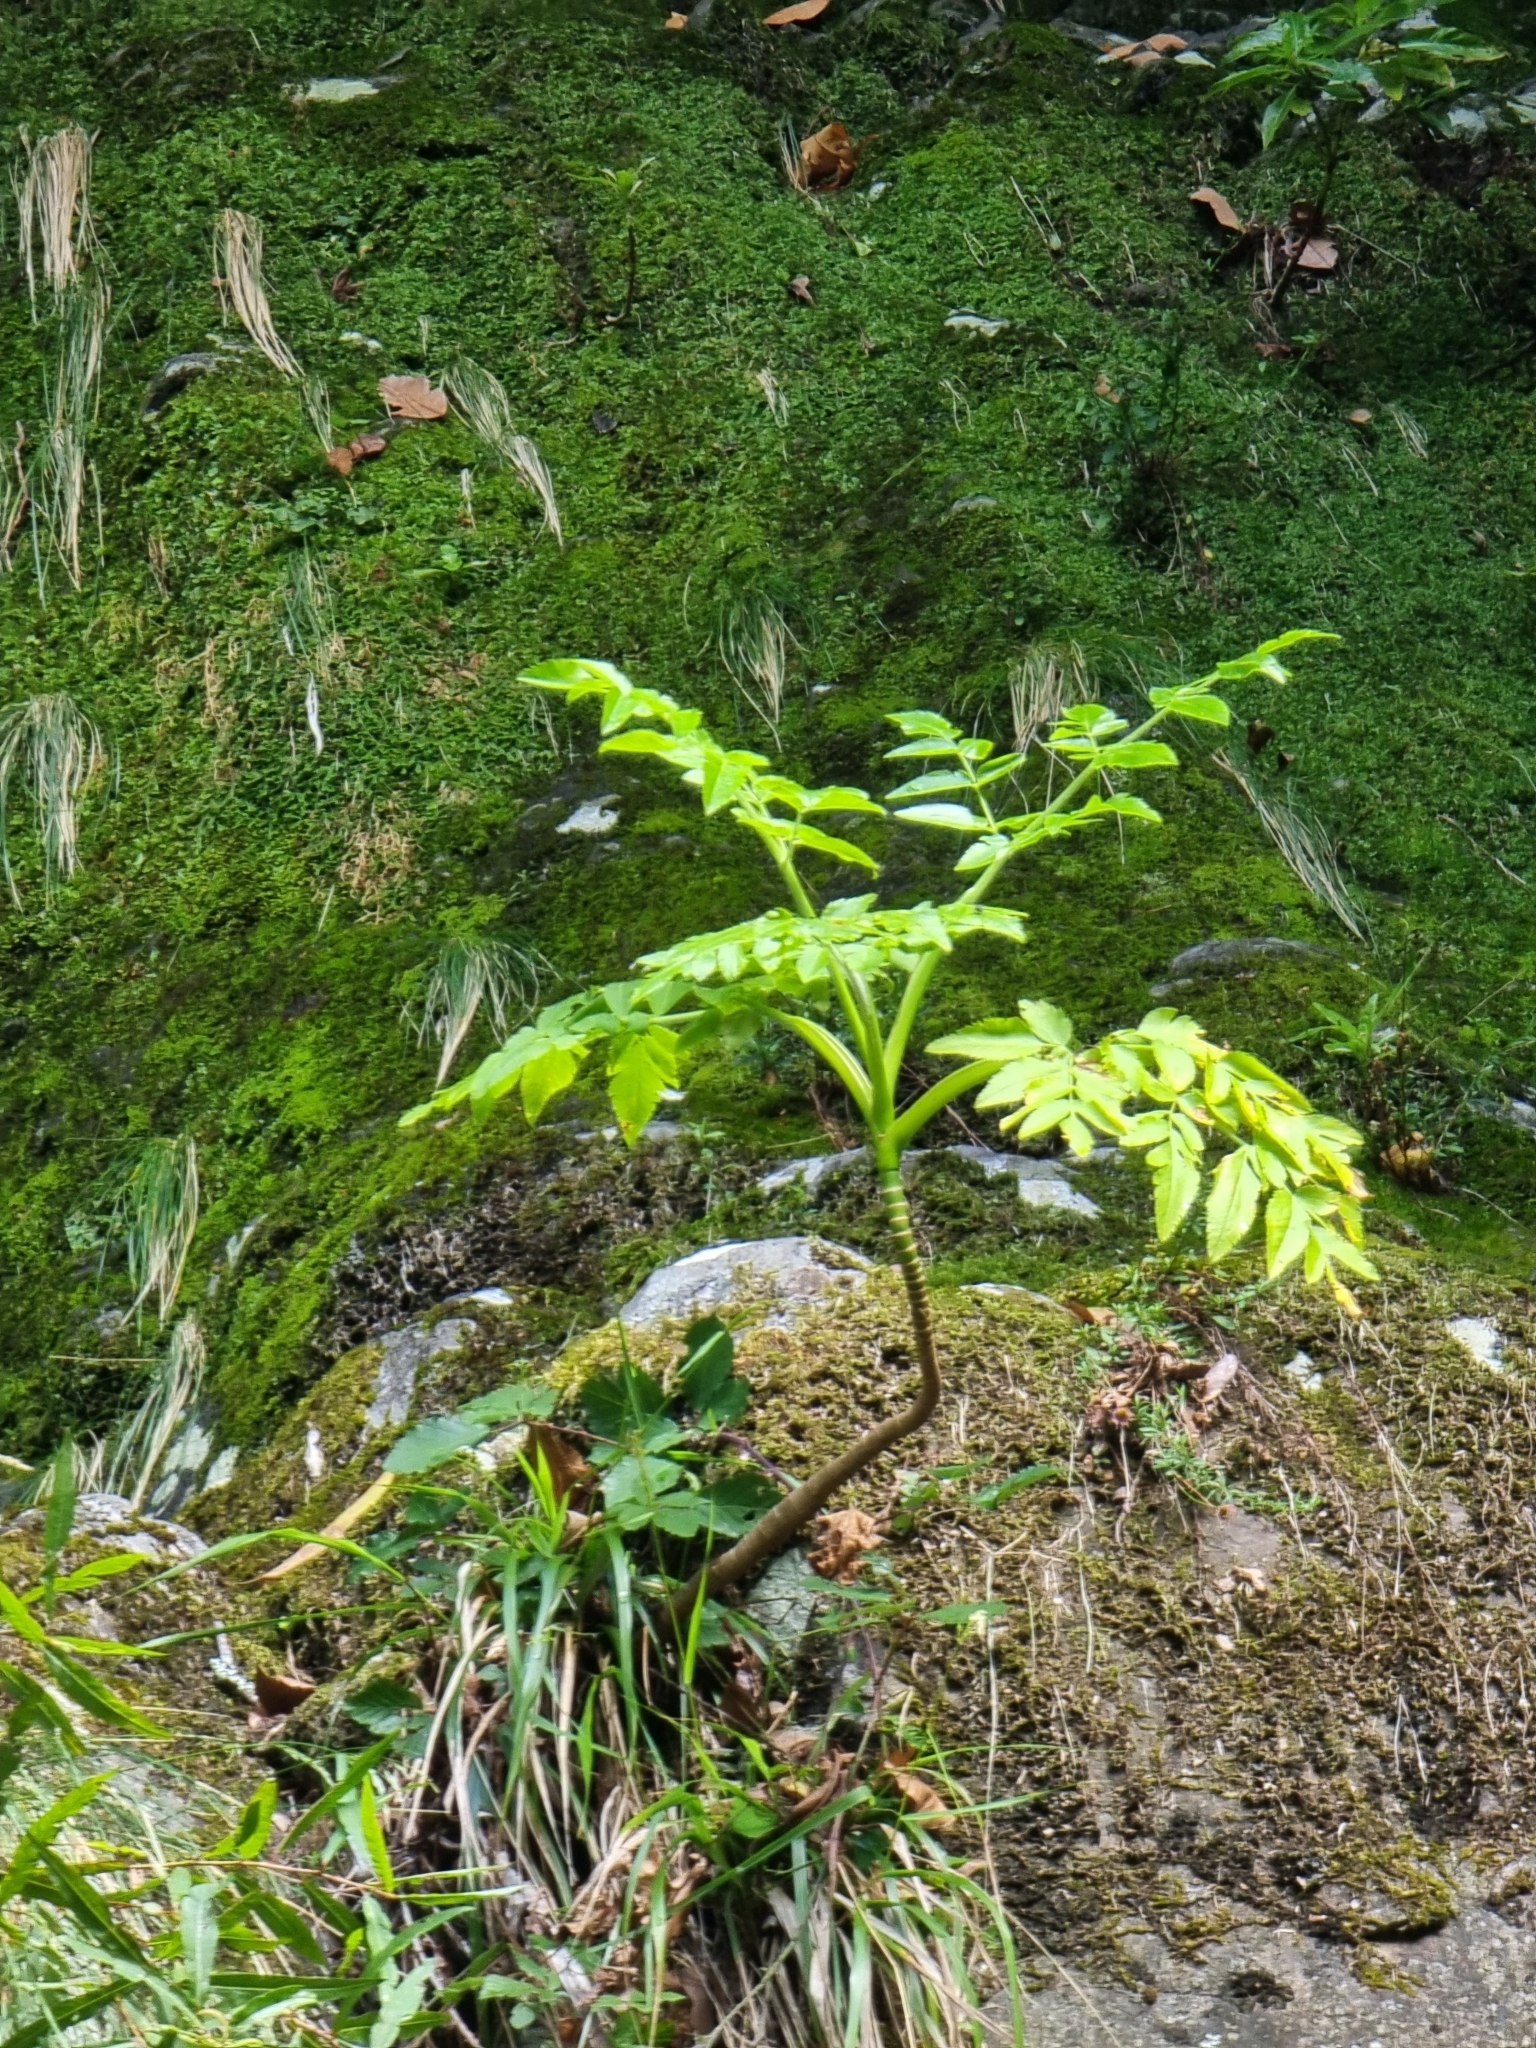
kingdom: Plantae
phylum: Tracheophyta
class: Magnoliopsida
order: Apiales
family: Apiaceae
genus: Daucus
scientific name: Daucus decipiens
